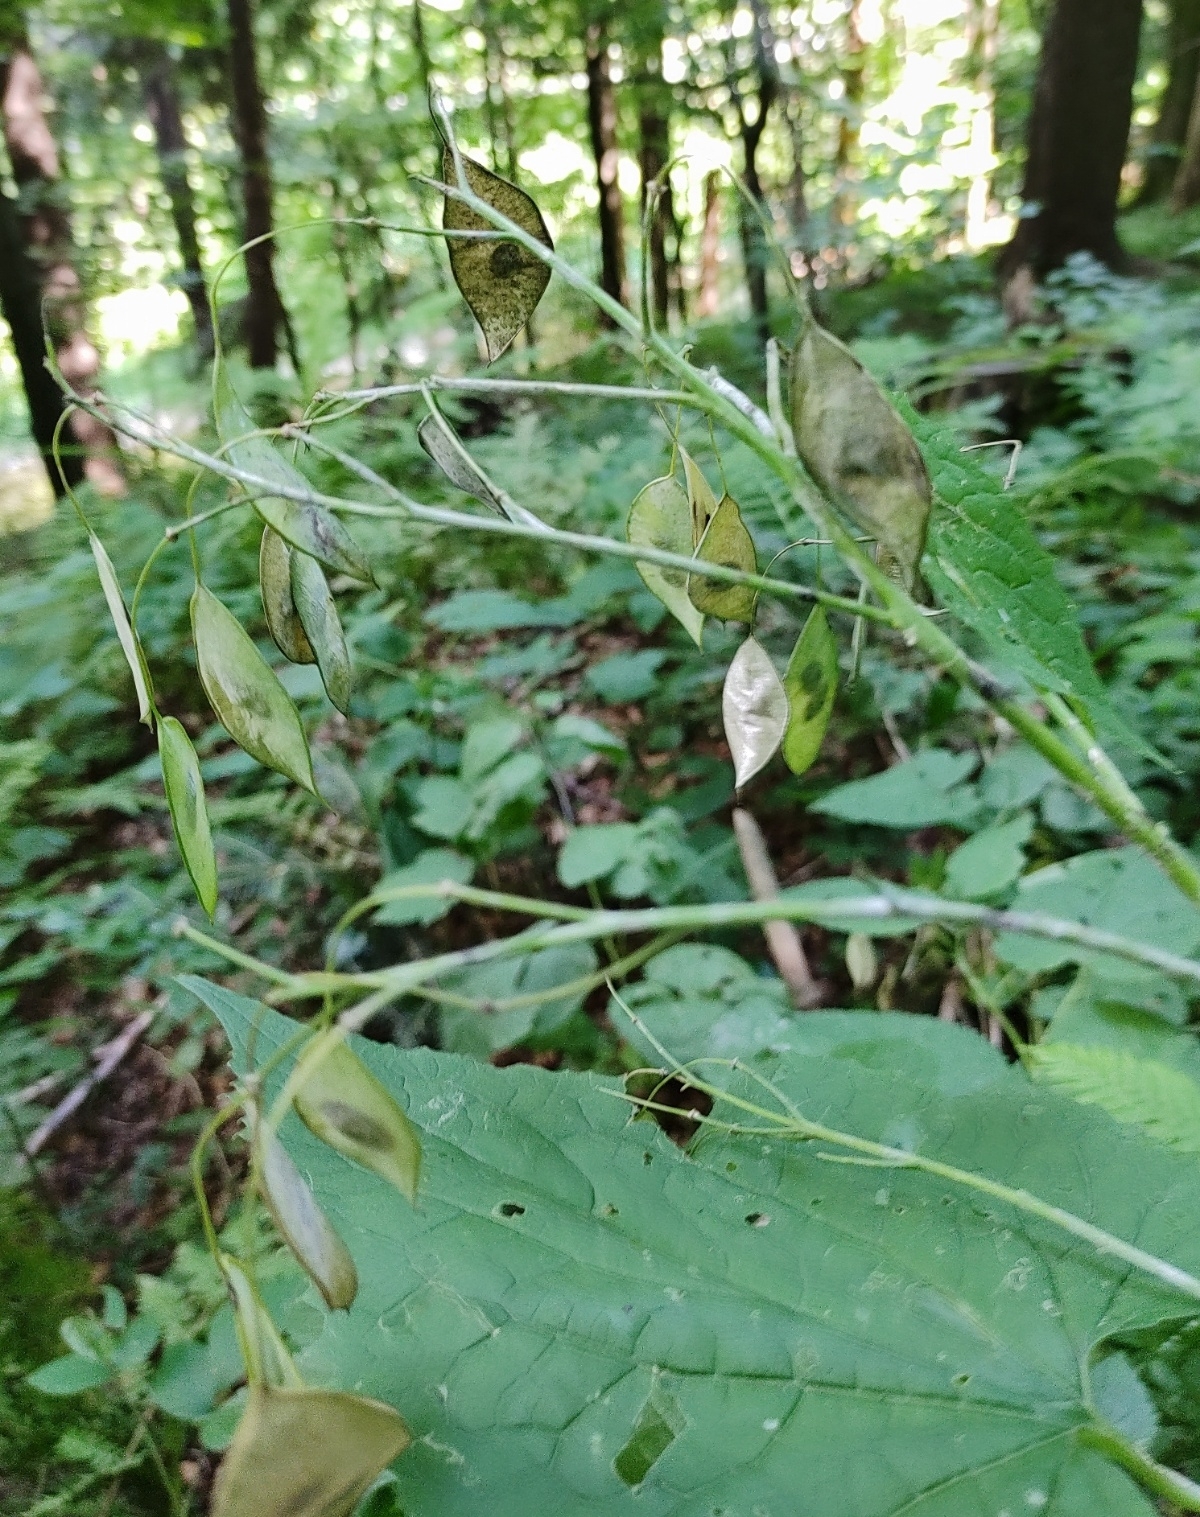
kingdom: Plantae
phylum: Tracheophyta
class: Magnoliopsida
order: Brassicales
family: Brassicaceae
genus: Lunaria
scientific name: Lunaria rediviva
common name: Perennial honesty
